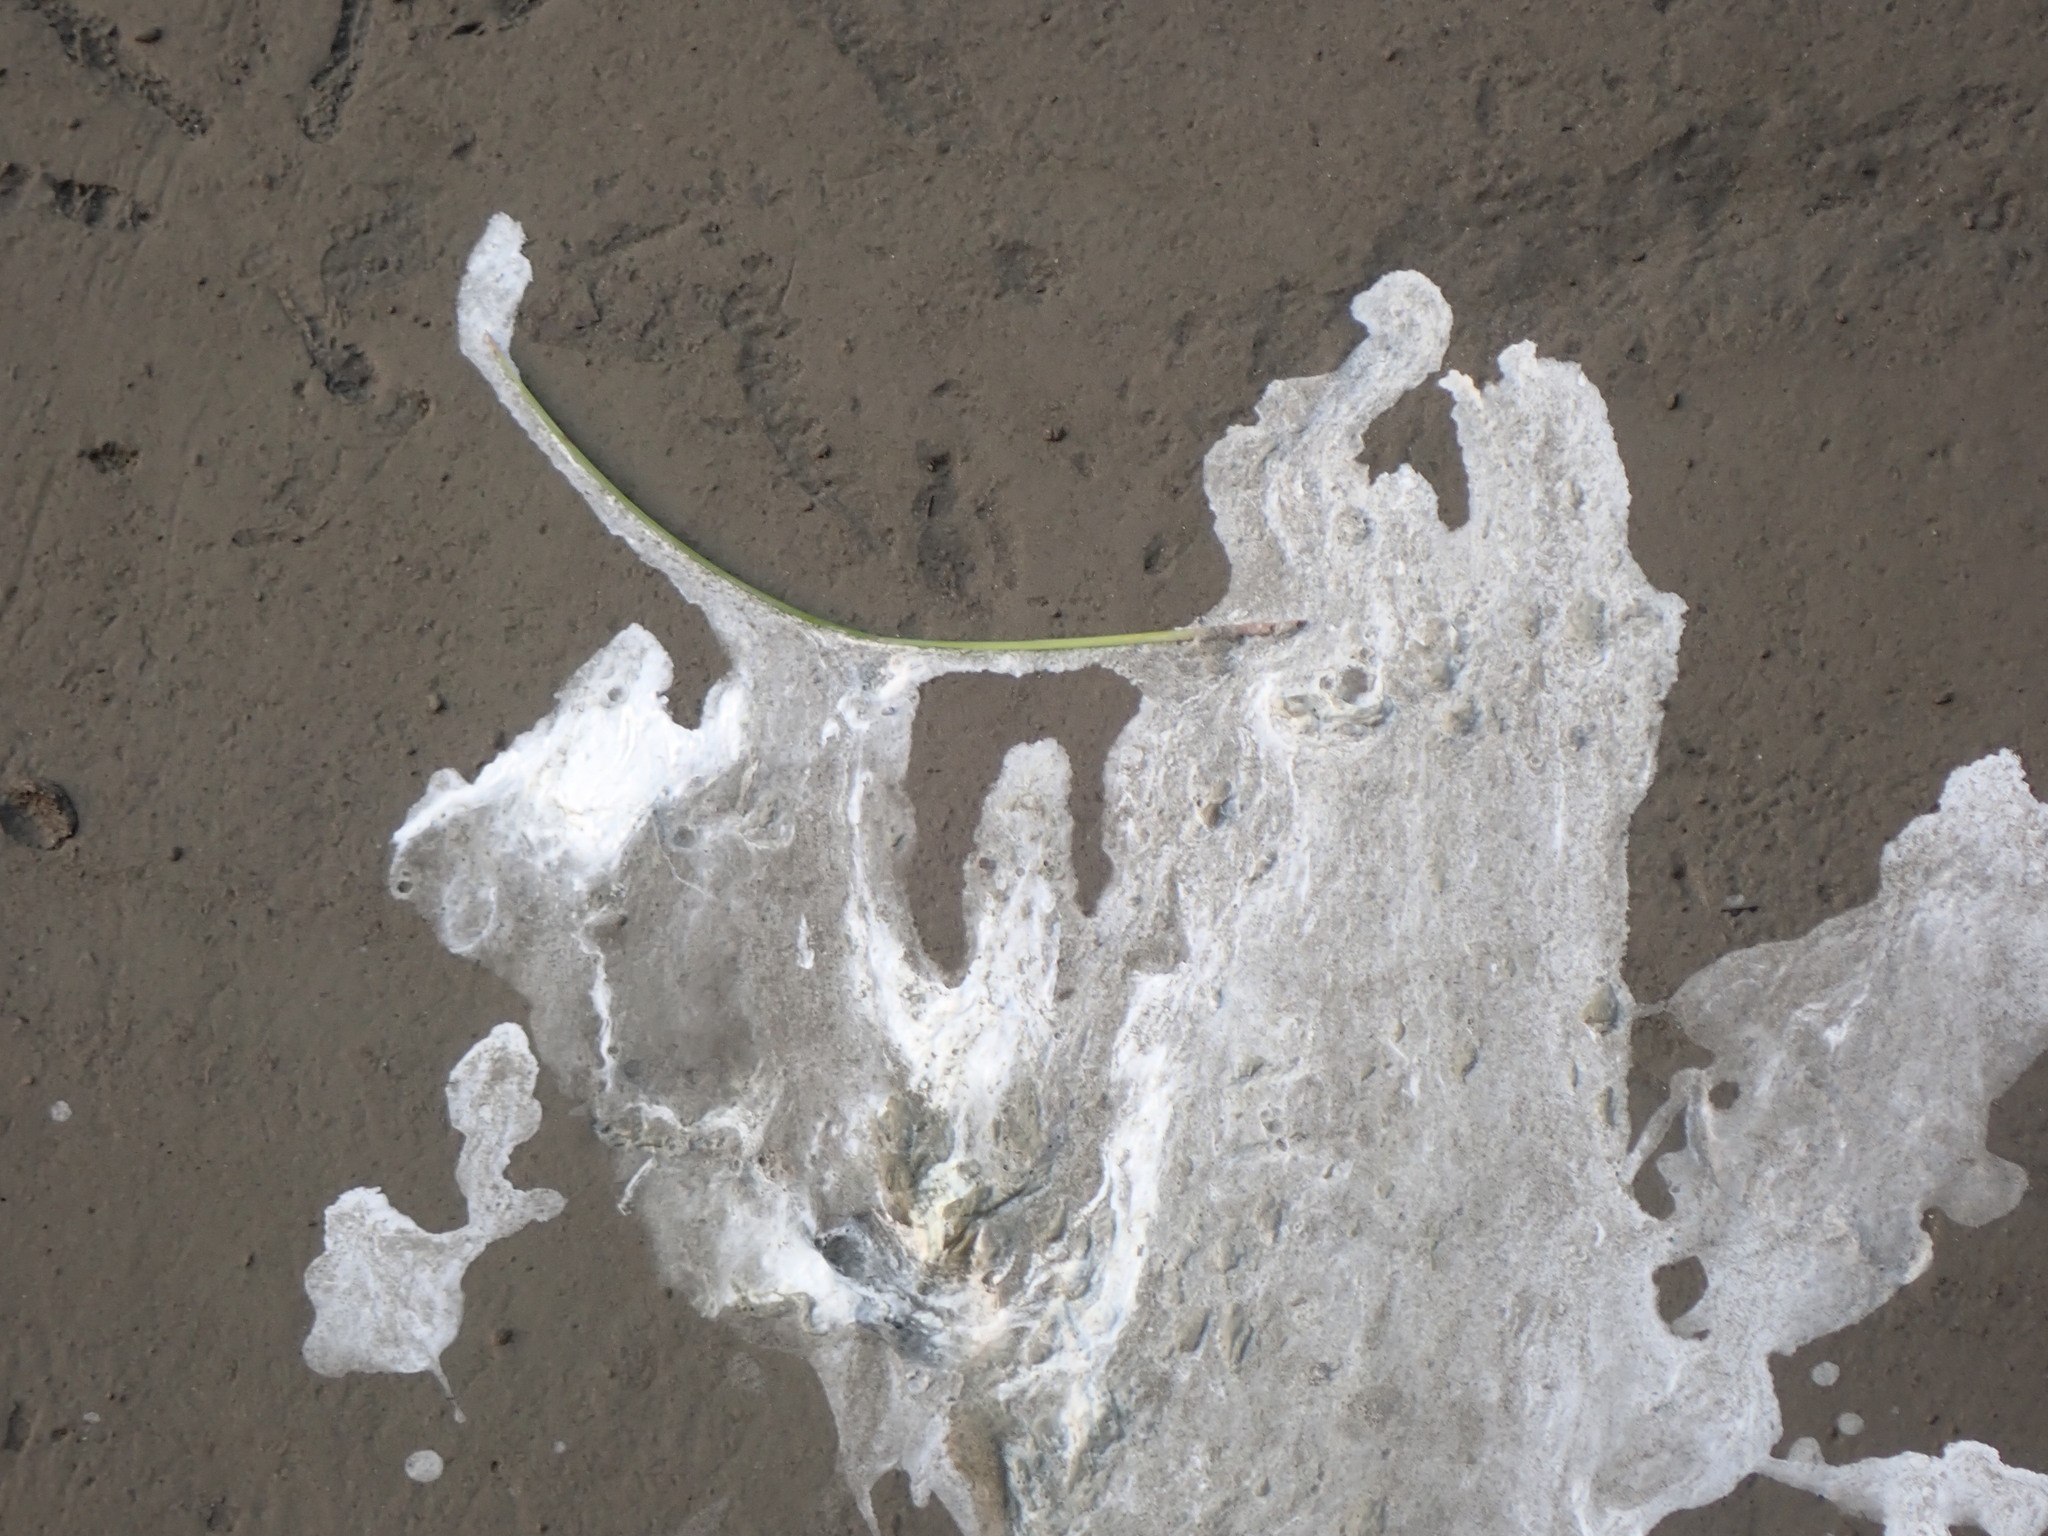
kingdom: Animalia
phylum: Chordata
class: Aves
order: Pelecaniformes
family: Ardeidae
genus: Ardea
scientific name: Ardea herodias
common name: Great blue heron
